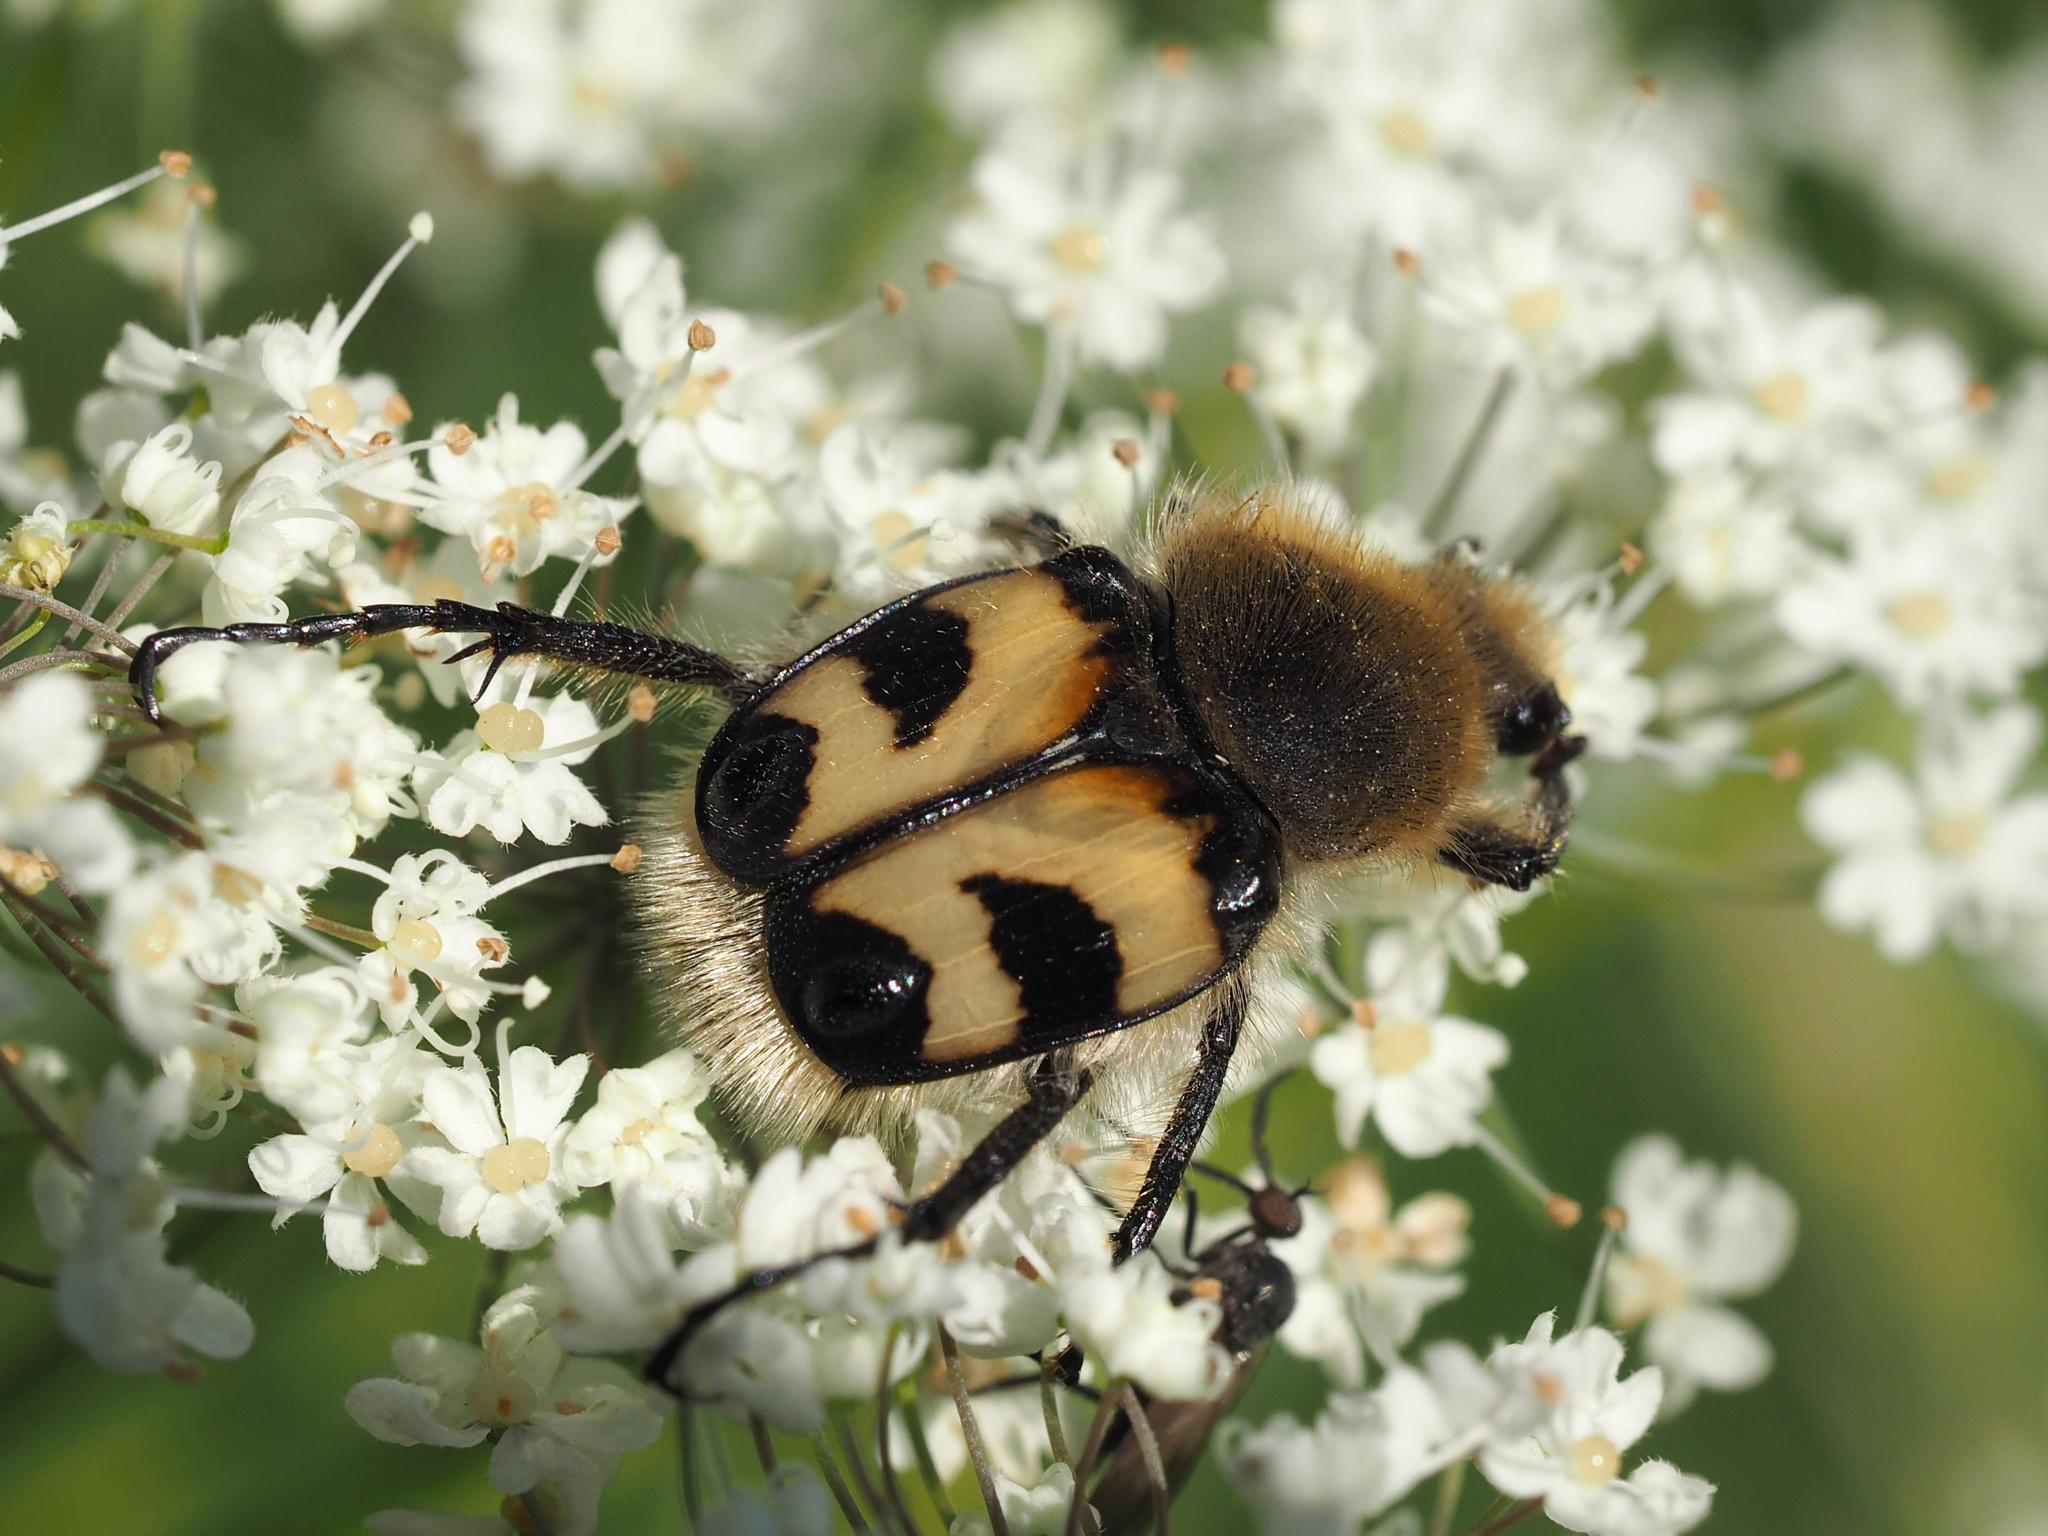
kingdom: Animalia
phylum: Arthropoda
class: Insecta
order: Coleoptera
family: Scarabaeidae
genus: Trichius
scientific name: Trichius fasciatus
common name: Bee beetle
